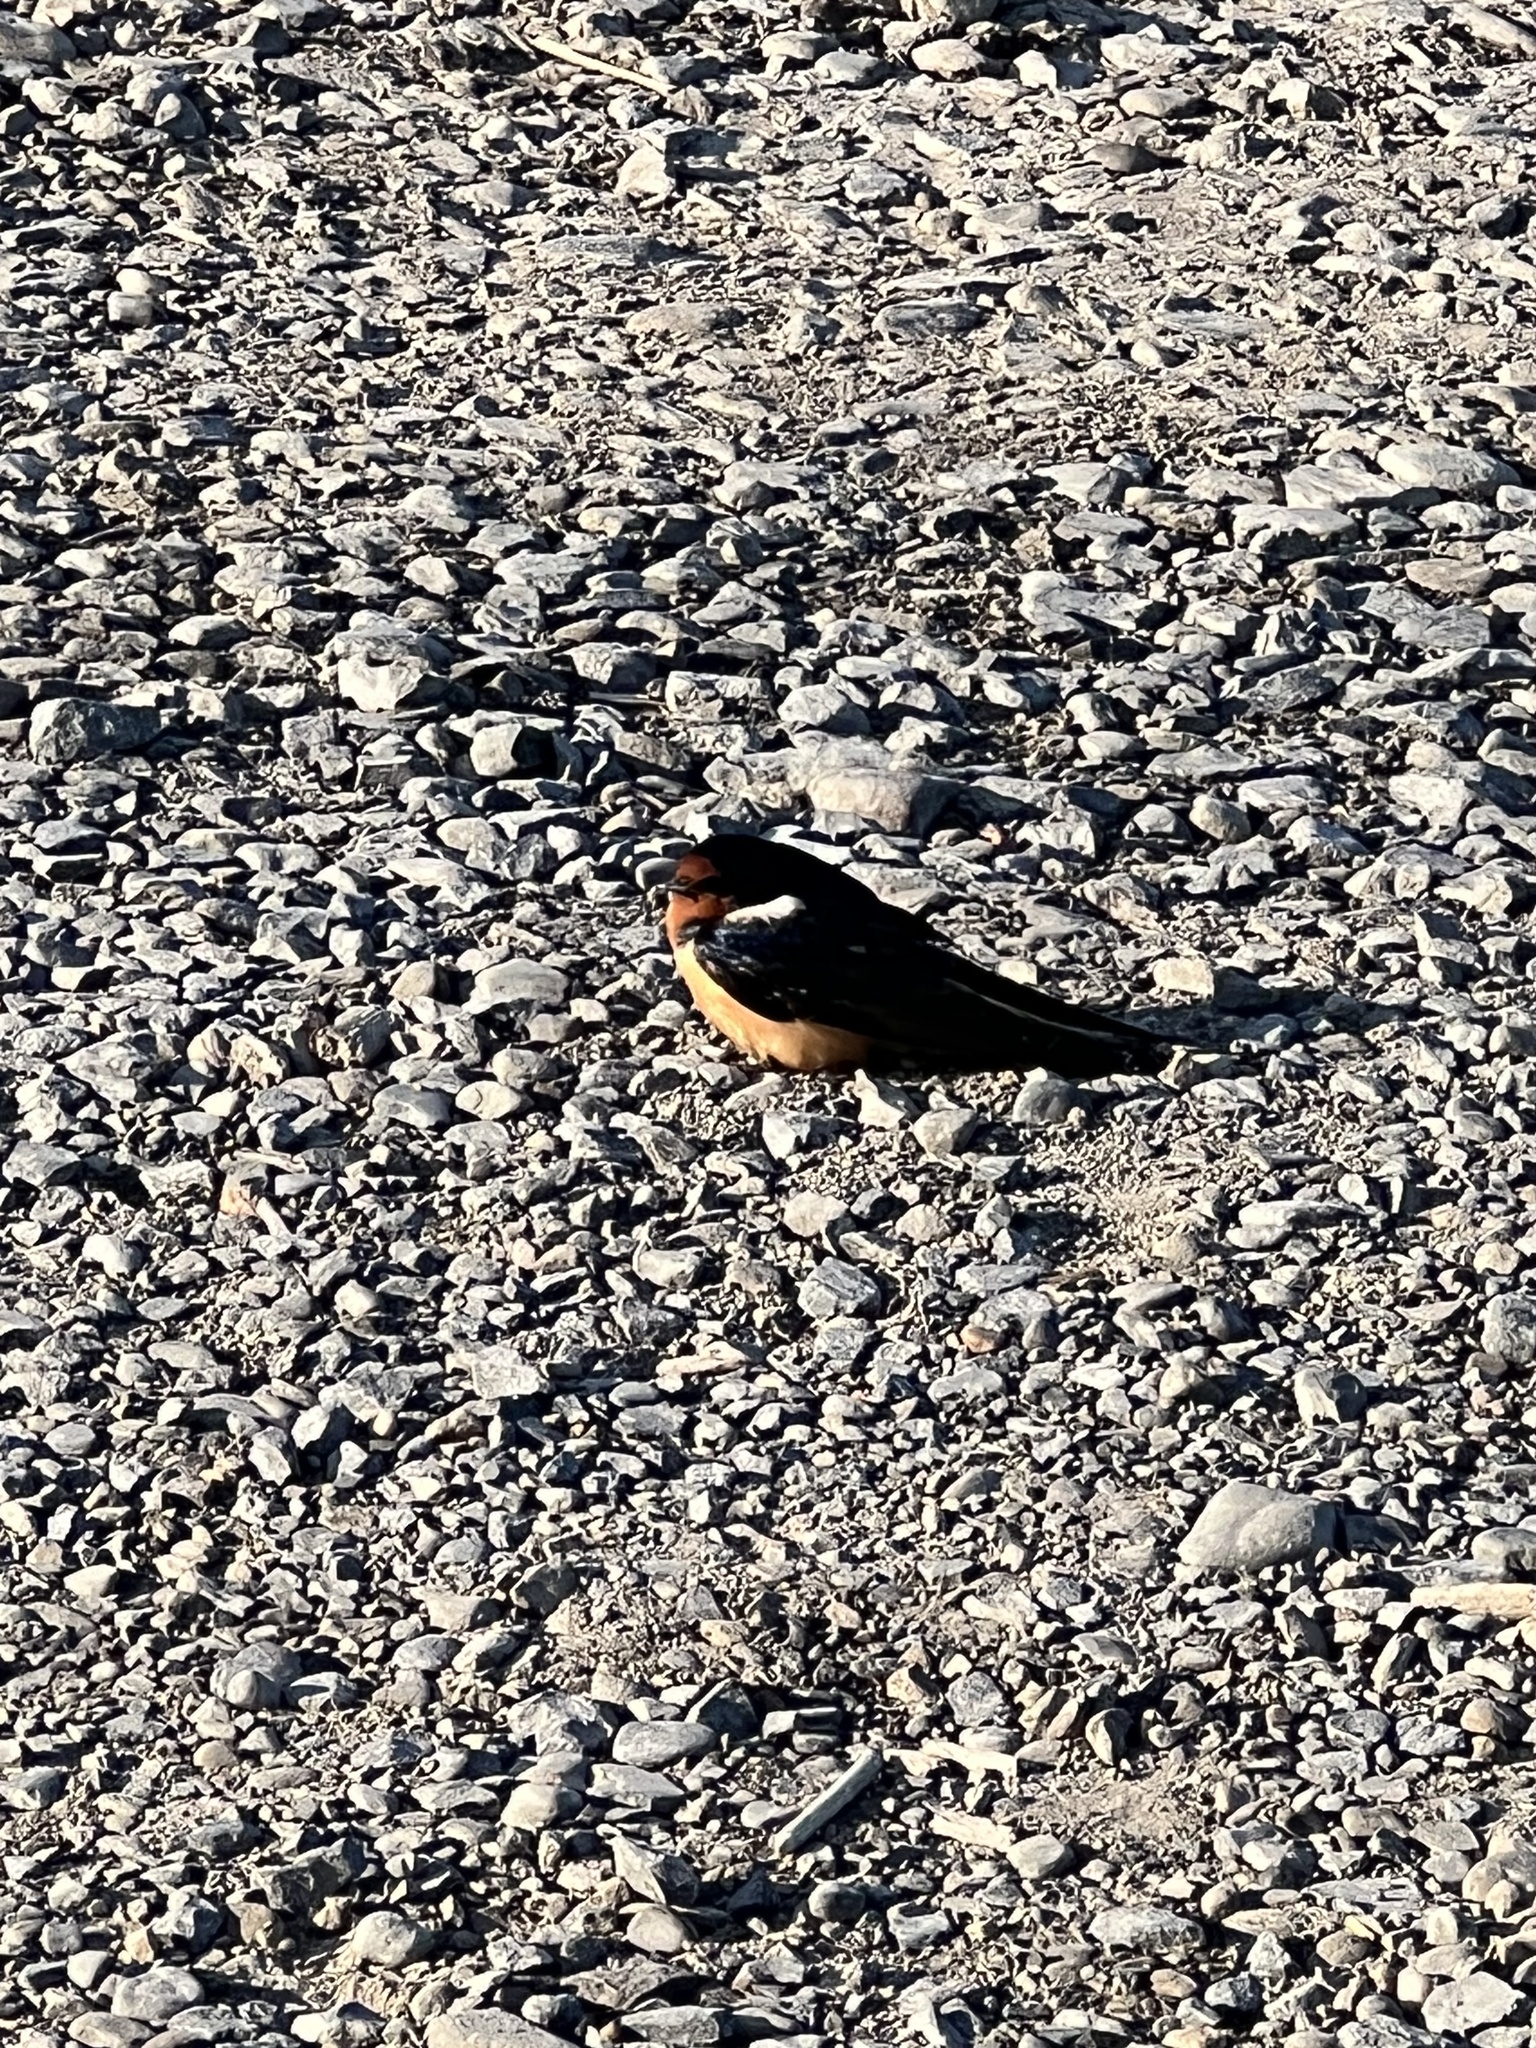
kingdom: Animalia
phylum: Chordata
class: Aves
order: Passeriformes
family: Hirundinidae
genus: Hirundo
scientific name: Hirundo rustica
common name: Barn swallow
